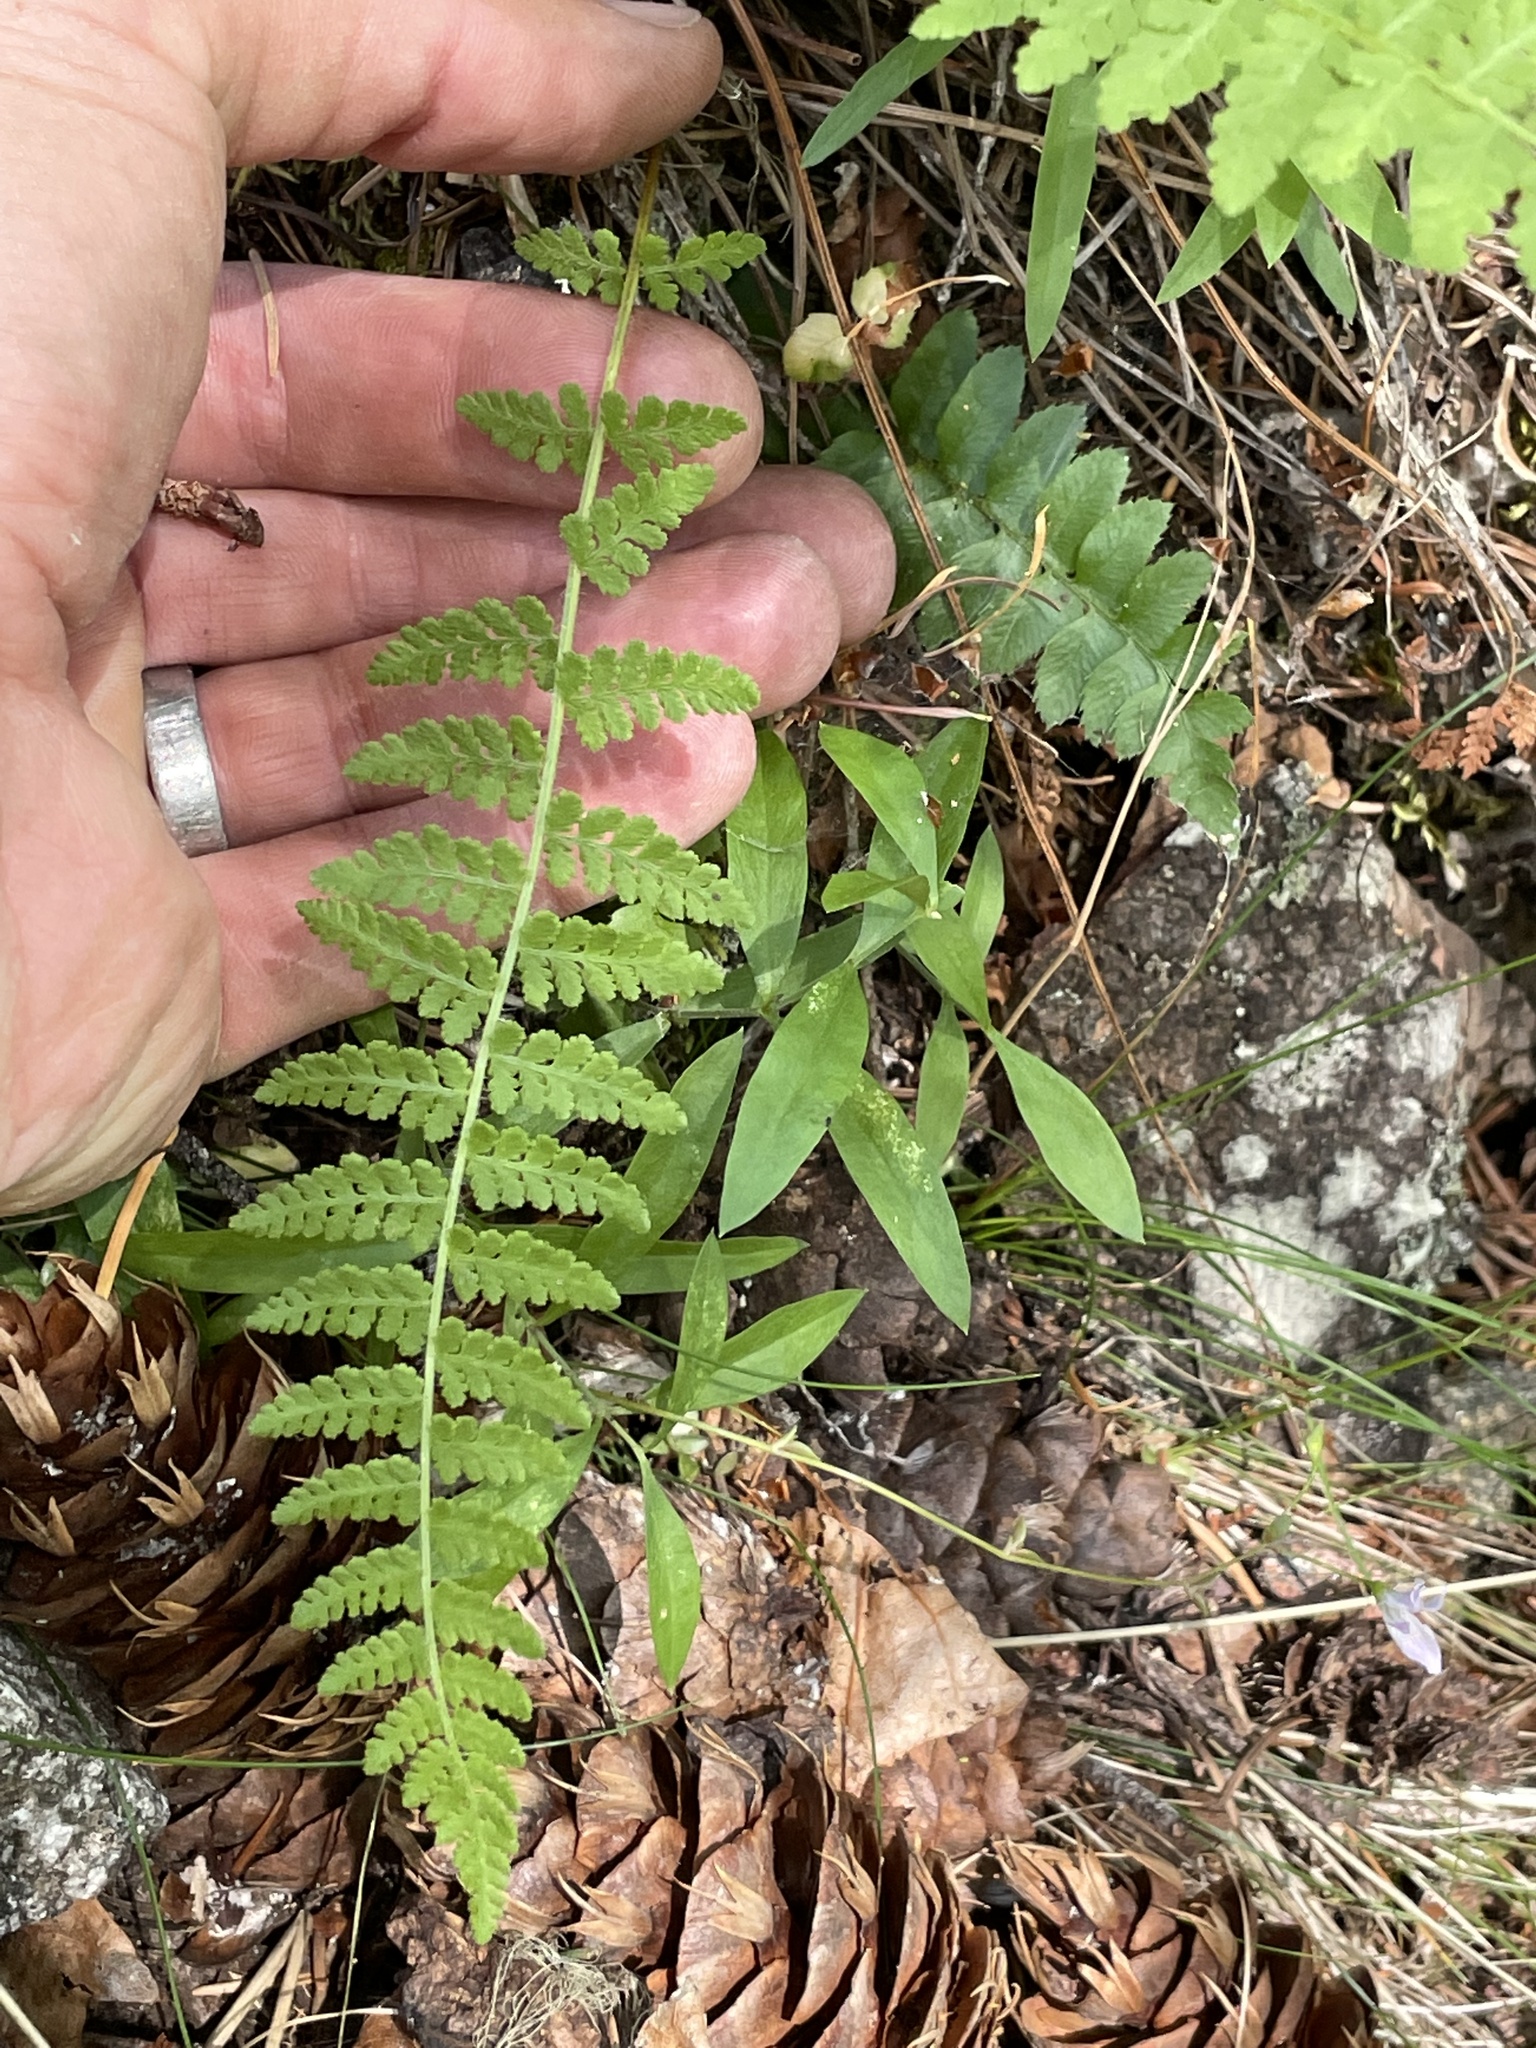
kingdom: Plantae
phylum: Tracheophyta
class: Polypodiopsida
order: Polypodiales
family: Woodsiaceae
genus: Physematium
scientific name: Physematium scopulinum
